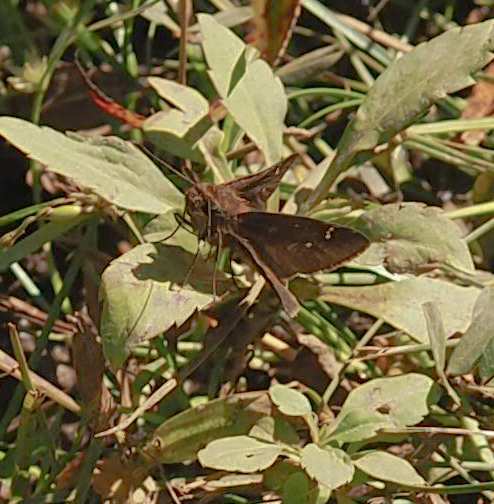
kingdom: Animalia
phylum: Arthropoda
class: Insecta
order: Lepidoptera
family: Hesperiidae
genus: Lerema
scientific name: Lerema accius
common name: Clouded skipper
